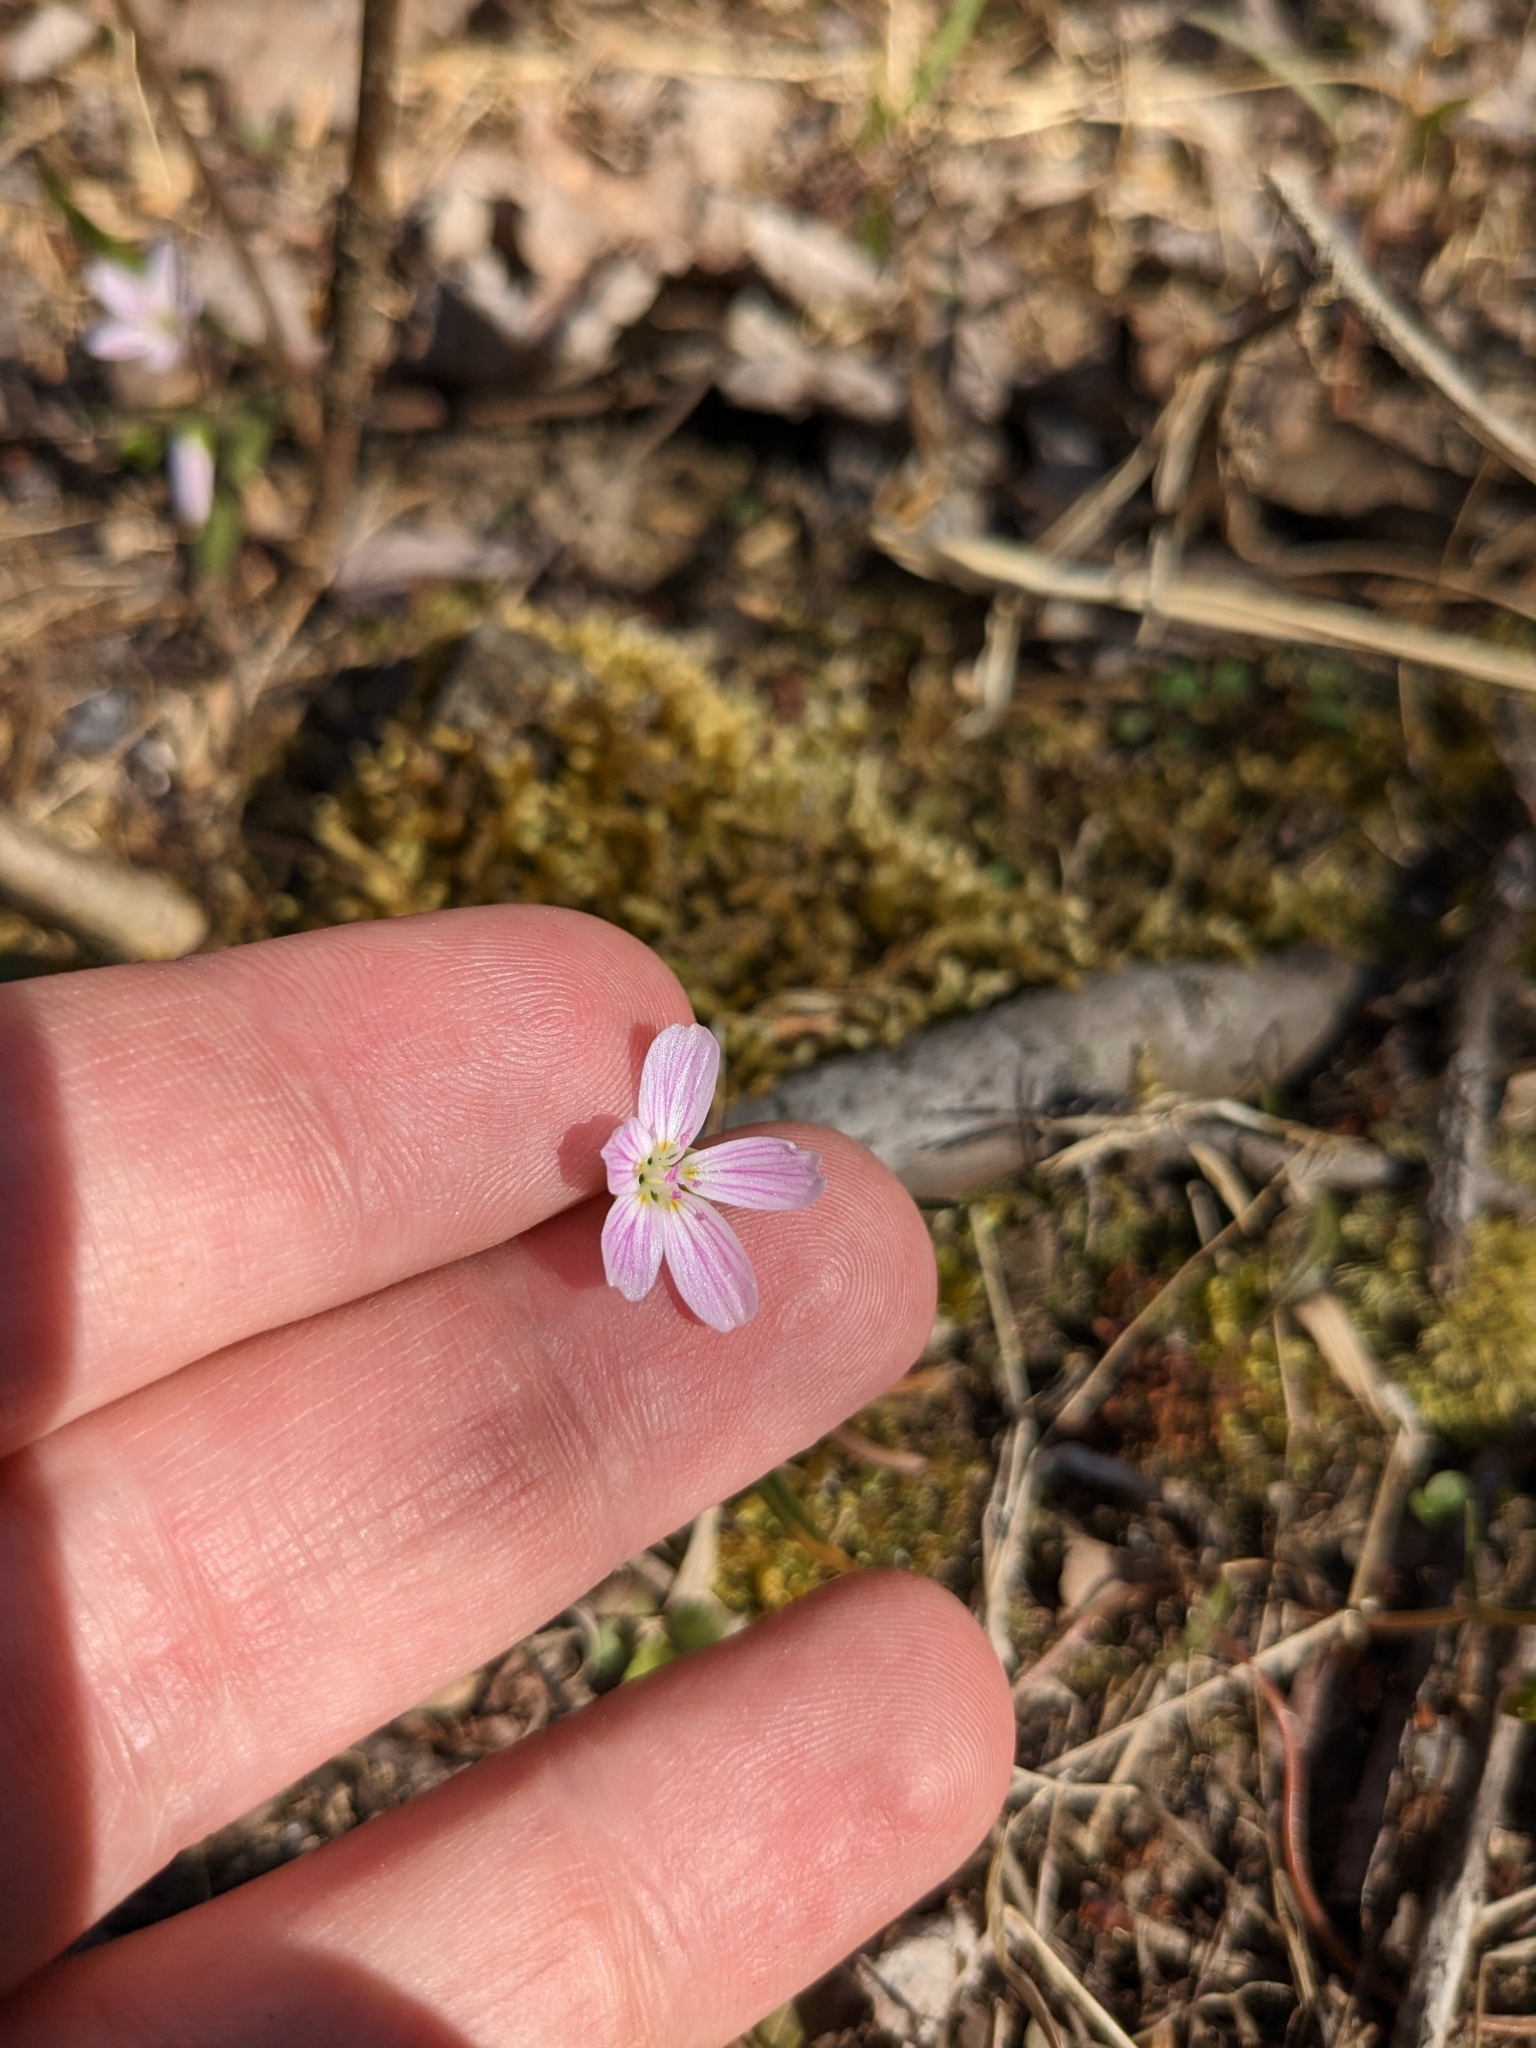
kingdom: Plantae
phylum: Tracheophyta
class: Magnoliopsida
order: Caryophyllales
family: Montiaceae
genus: Claytonia
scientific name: Claytonia virginica
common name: Virginia springbeauty
